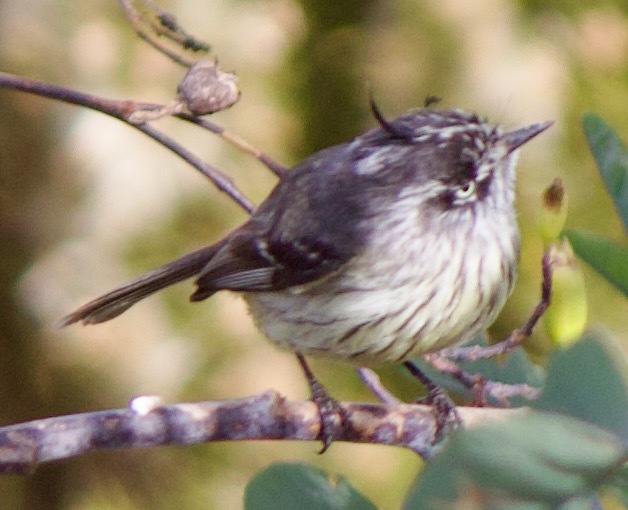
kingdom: Animalia
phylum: Chordata
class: Aves
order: Passeriformes
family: Tyrannidae
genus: Anairetes
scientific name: Anairetes parulus
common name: Tufted tit-tyrant
